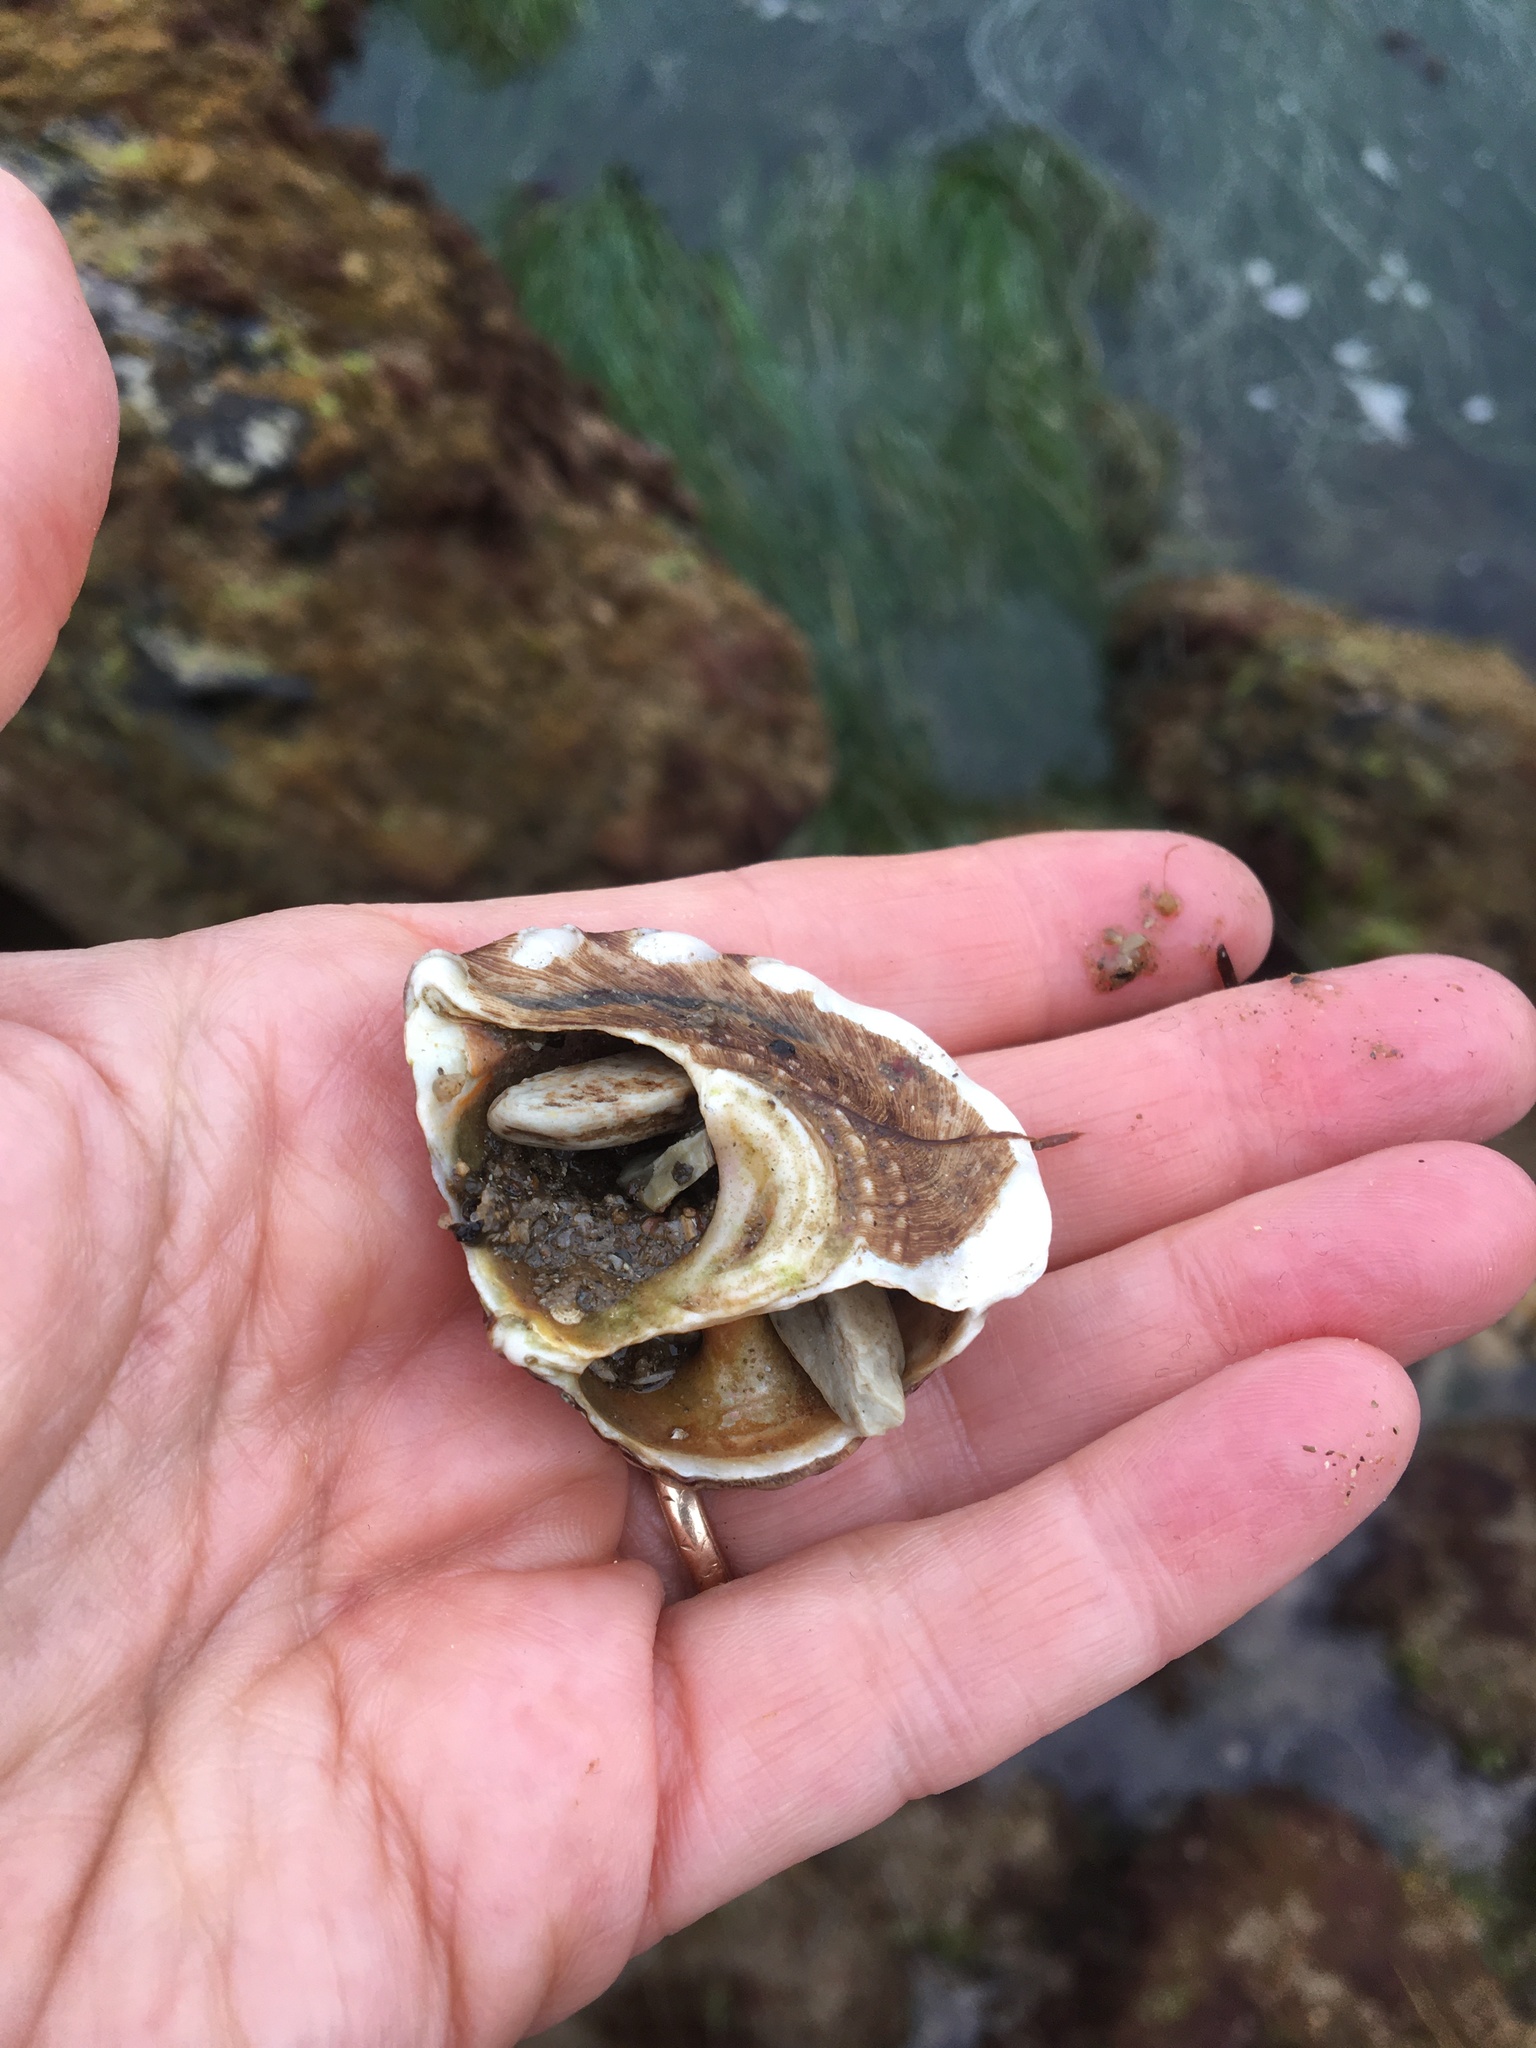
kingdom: Animalia
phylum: Mollusca
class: Gastropoda
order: Trochida
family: Turbinidae
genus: Megastraea
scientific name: Megastraea undosa
